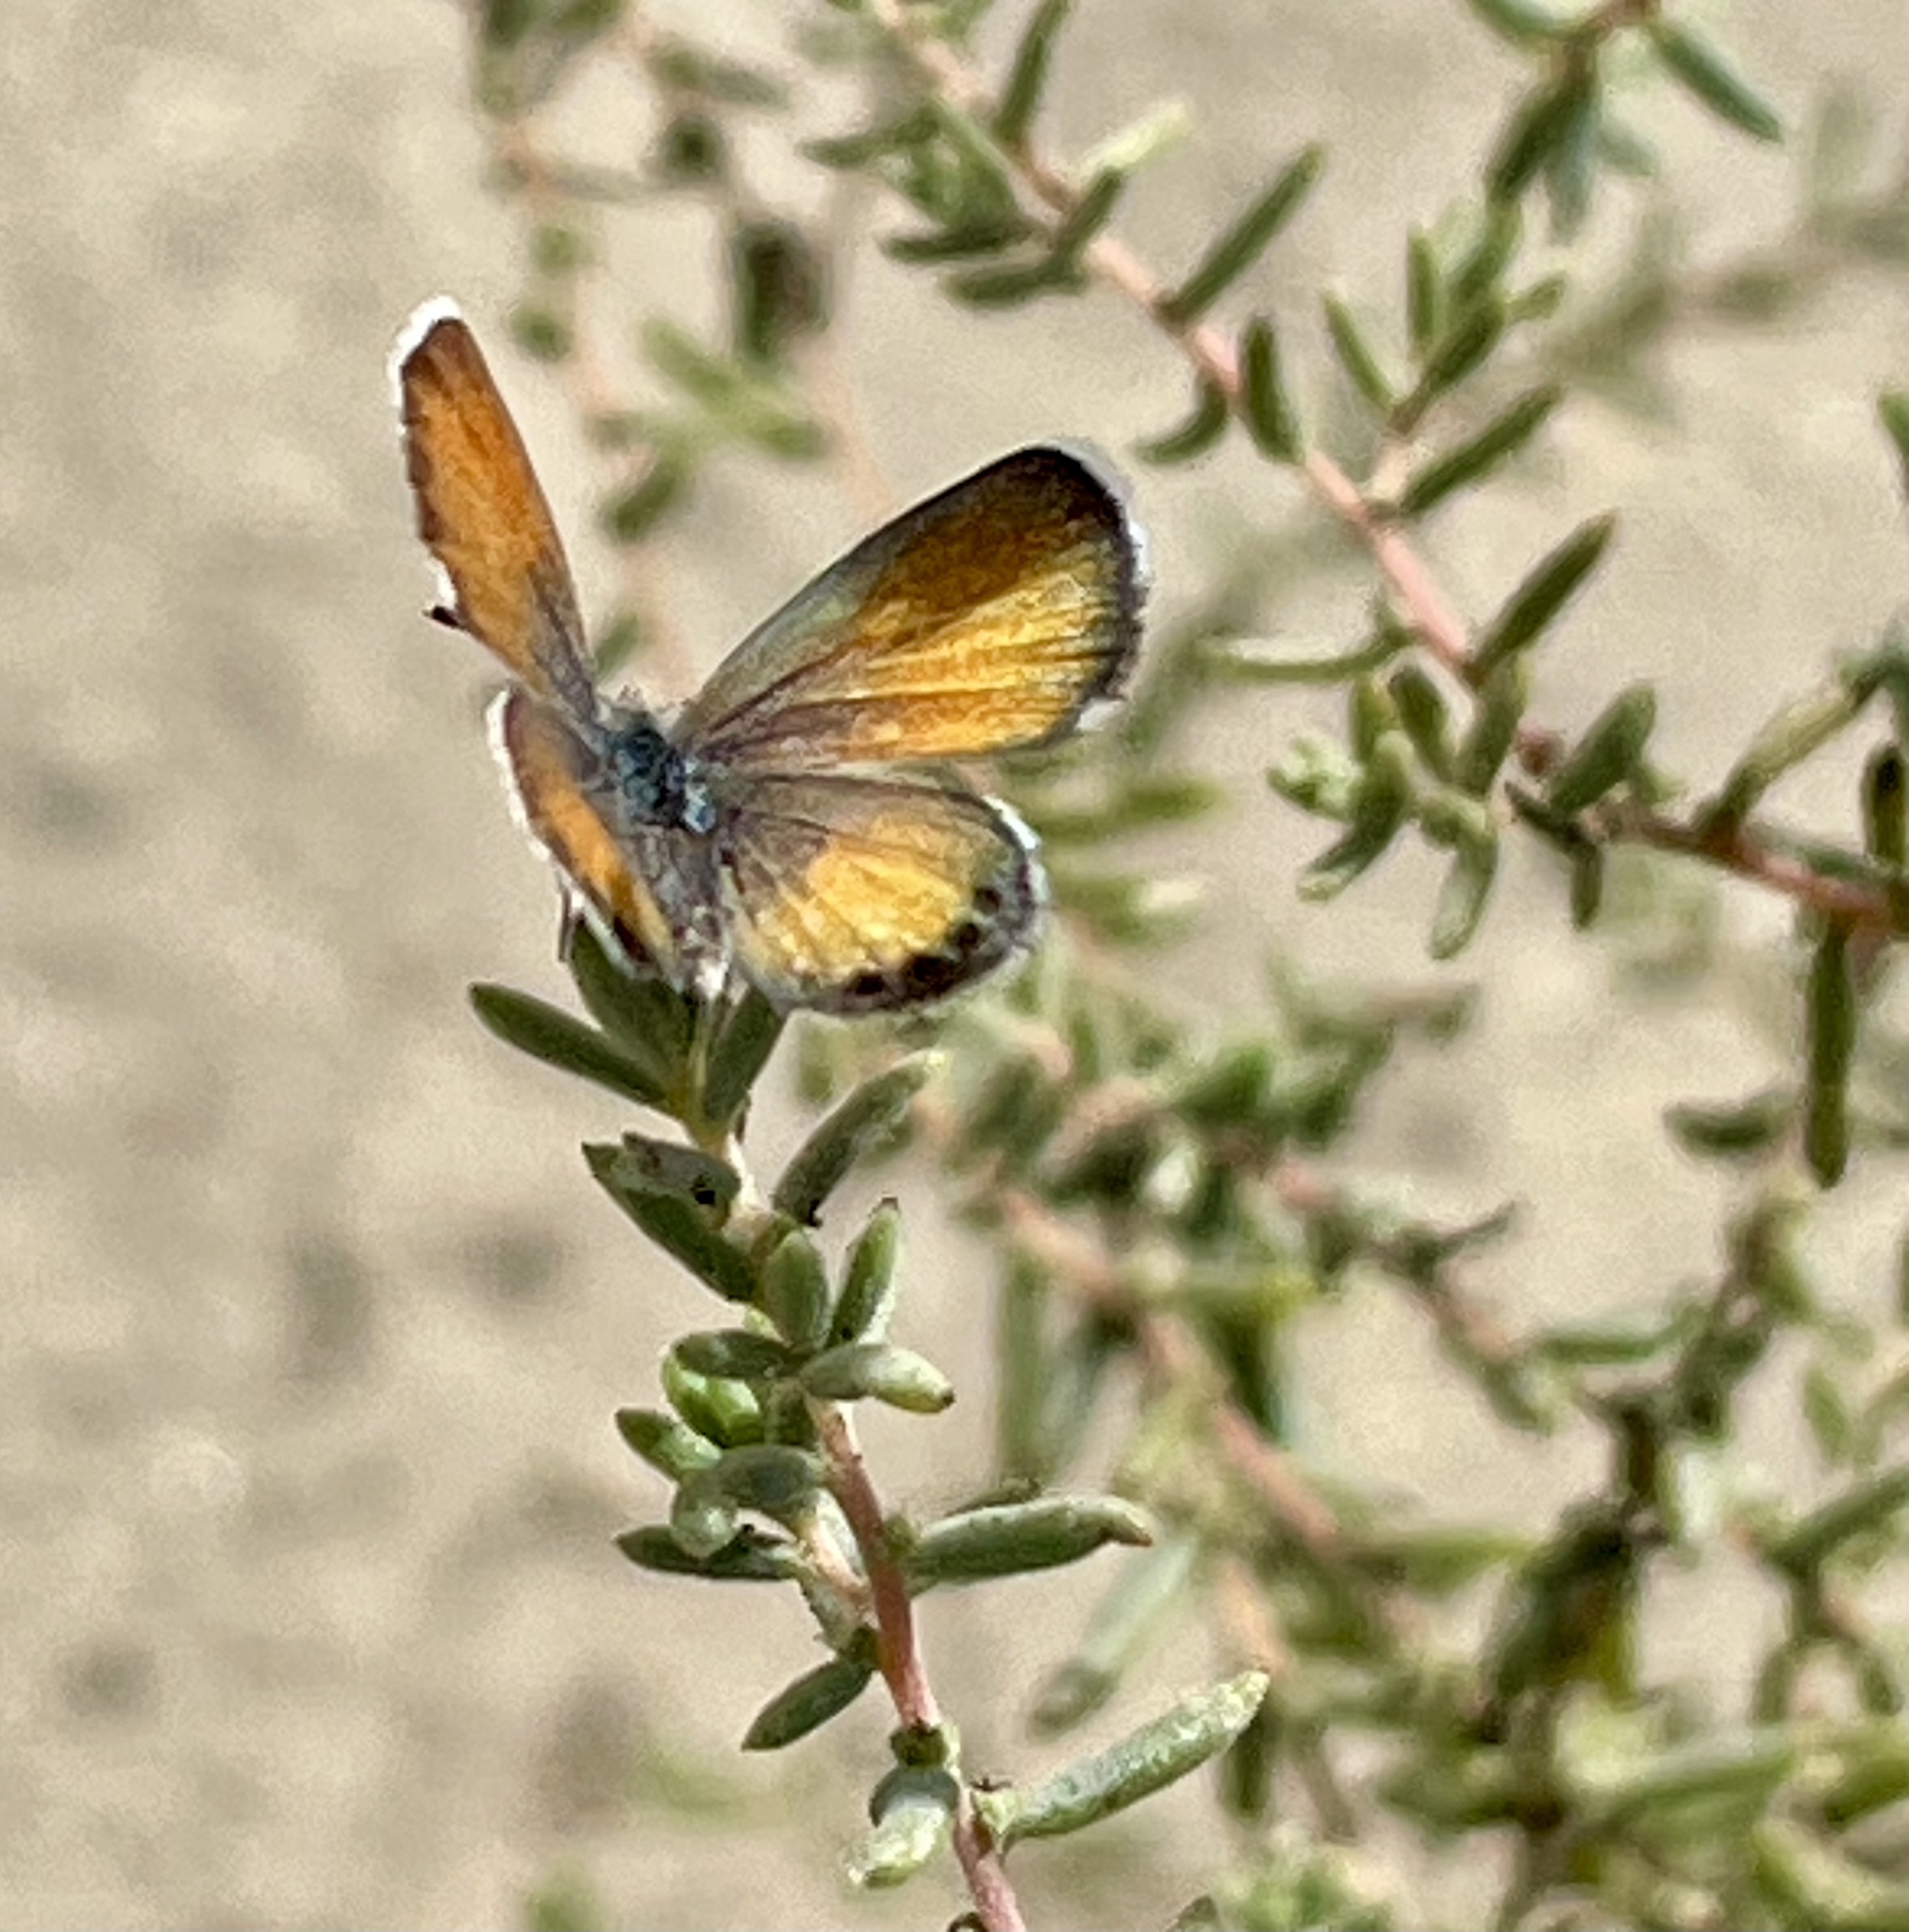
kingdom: Plantae
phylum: Tracheophyta
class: Magnoliopsida
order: Caryophyllales
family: Amaranthaceae
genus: Suaeda
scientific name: Suaeda nigra
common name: Bush seepweed
